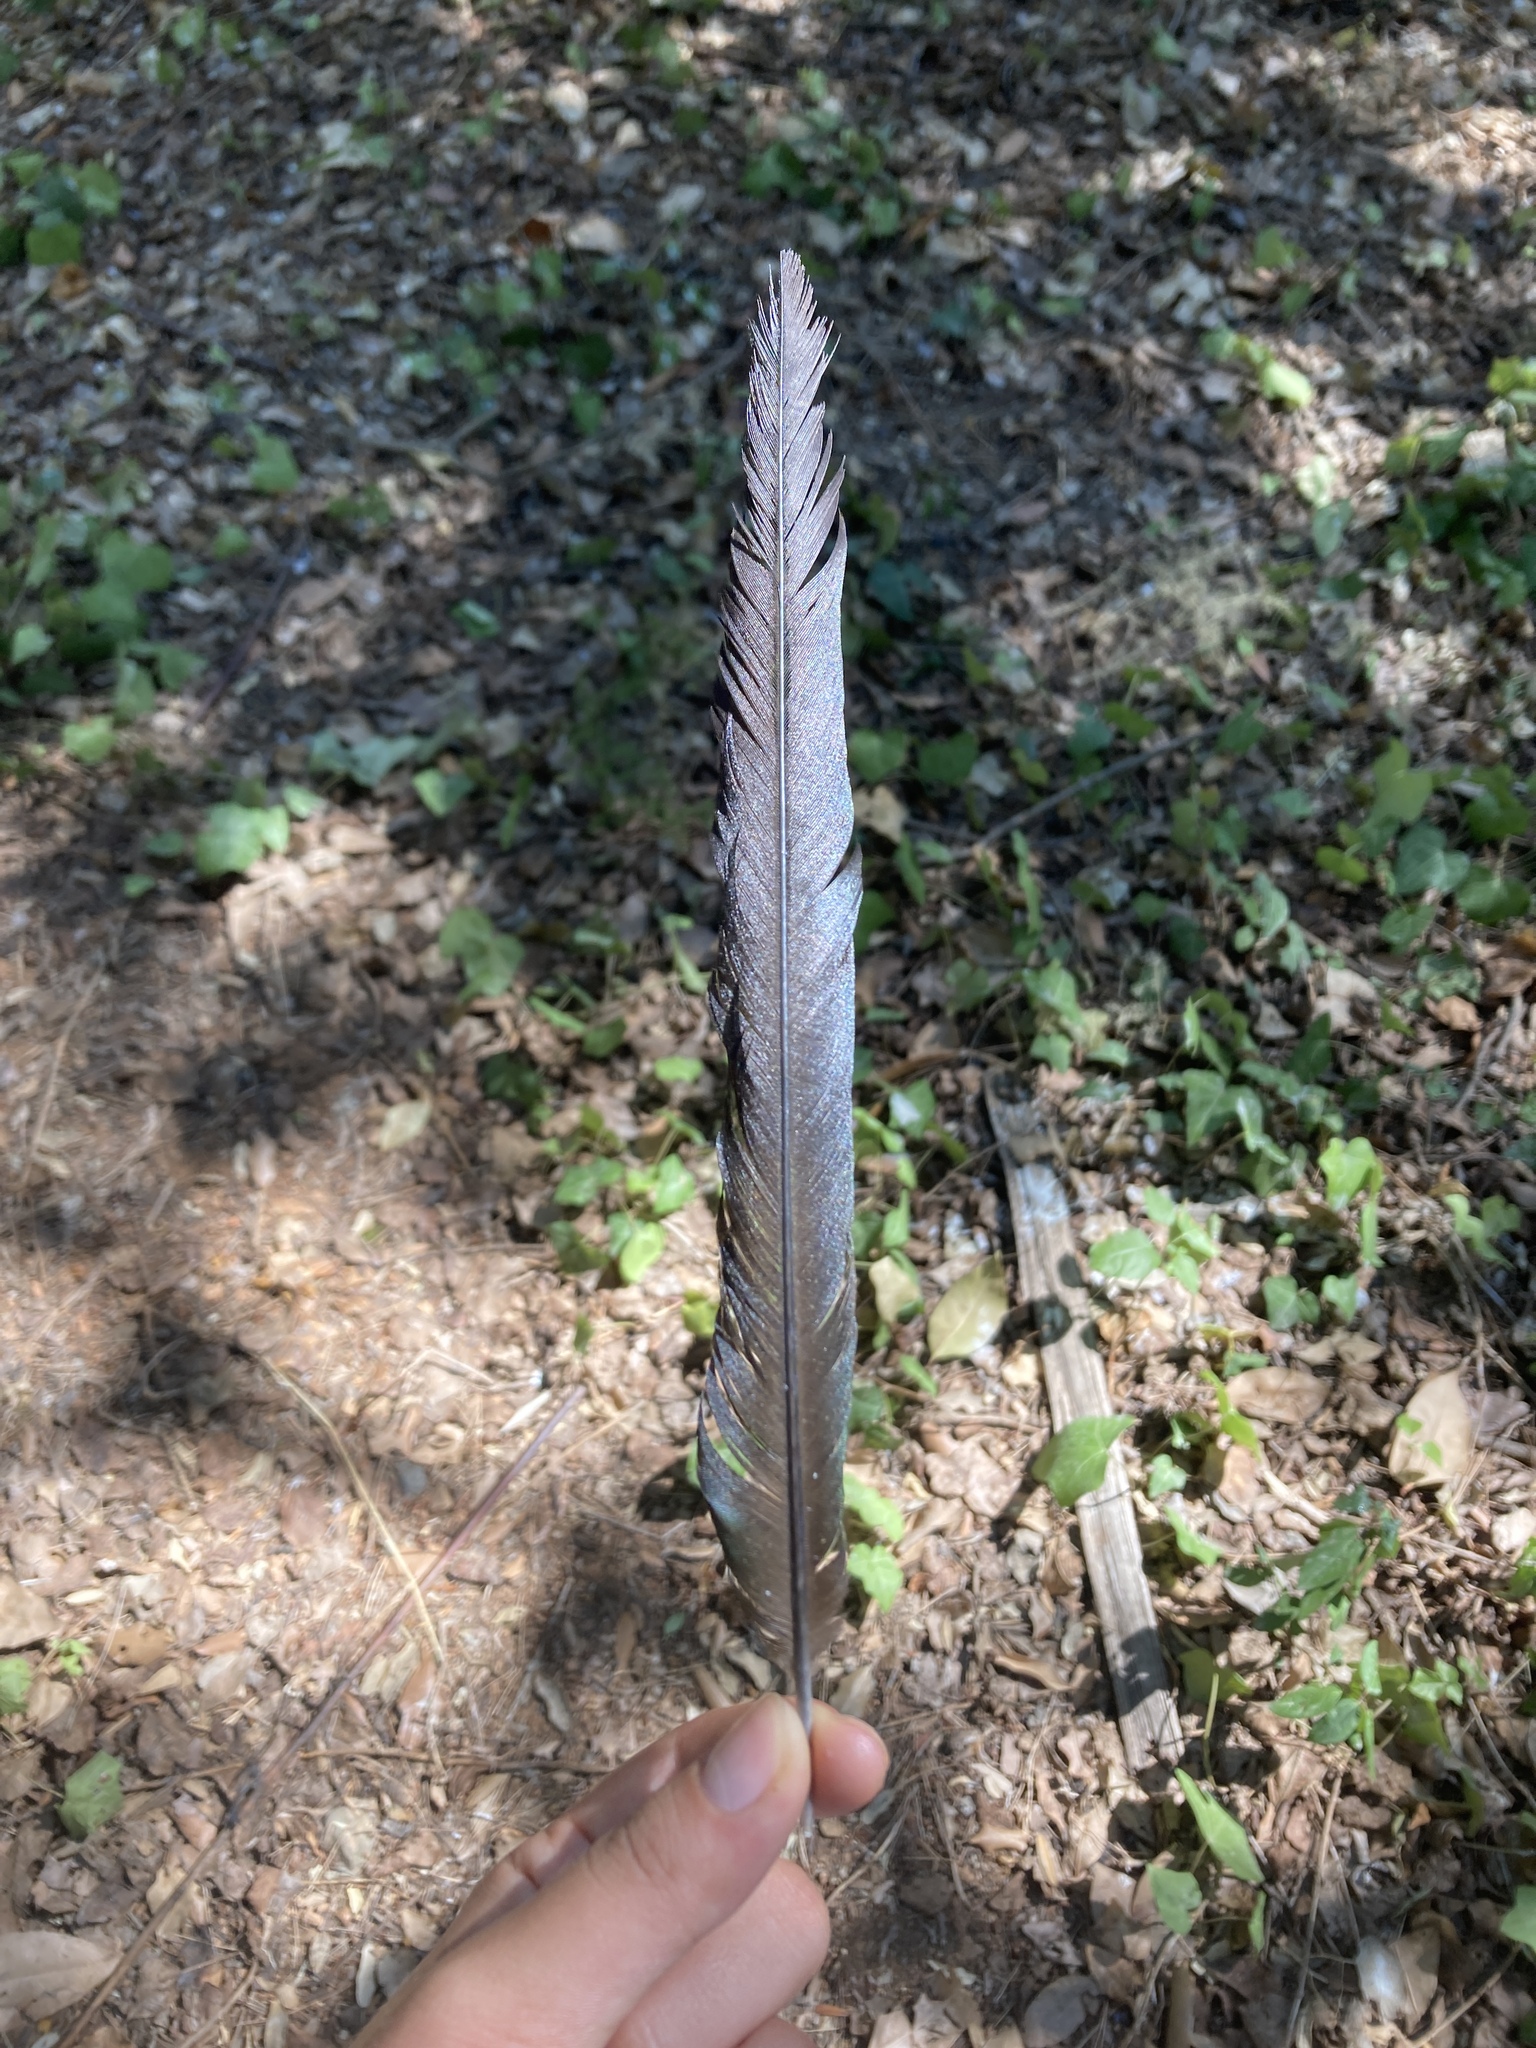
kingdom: Animalia
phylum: Chordata
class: Aves
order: Passeriformes
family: Corvidae
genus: Pica
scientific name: Pica pica
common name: Eurasian magpie
